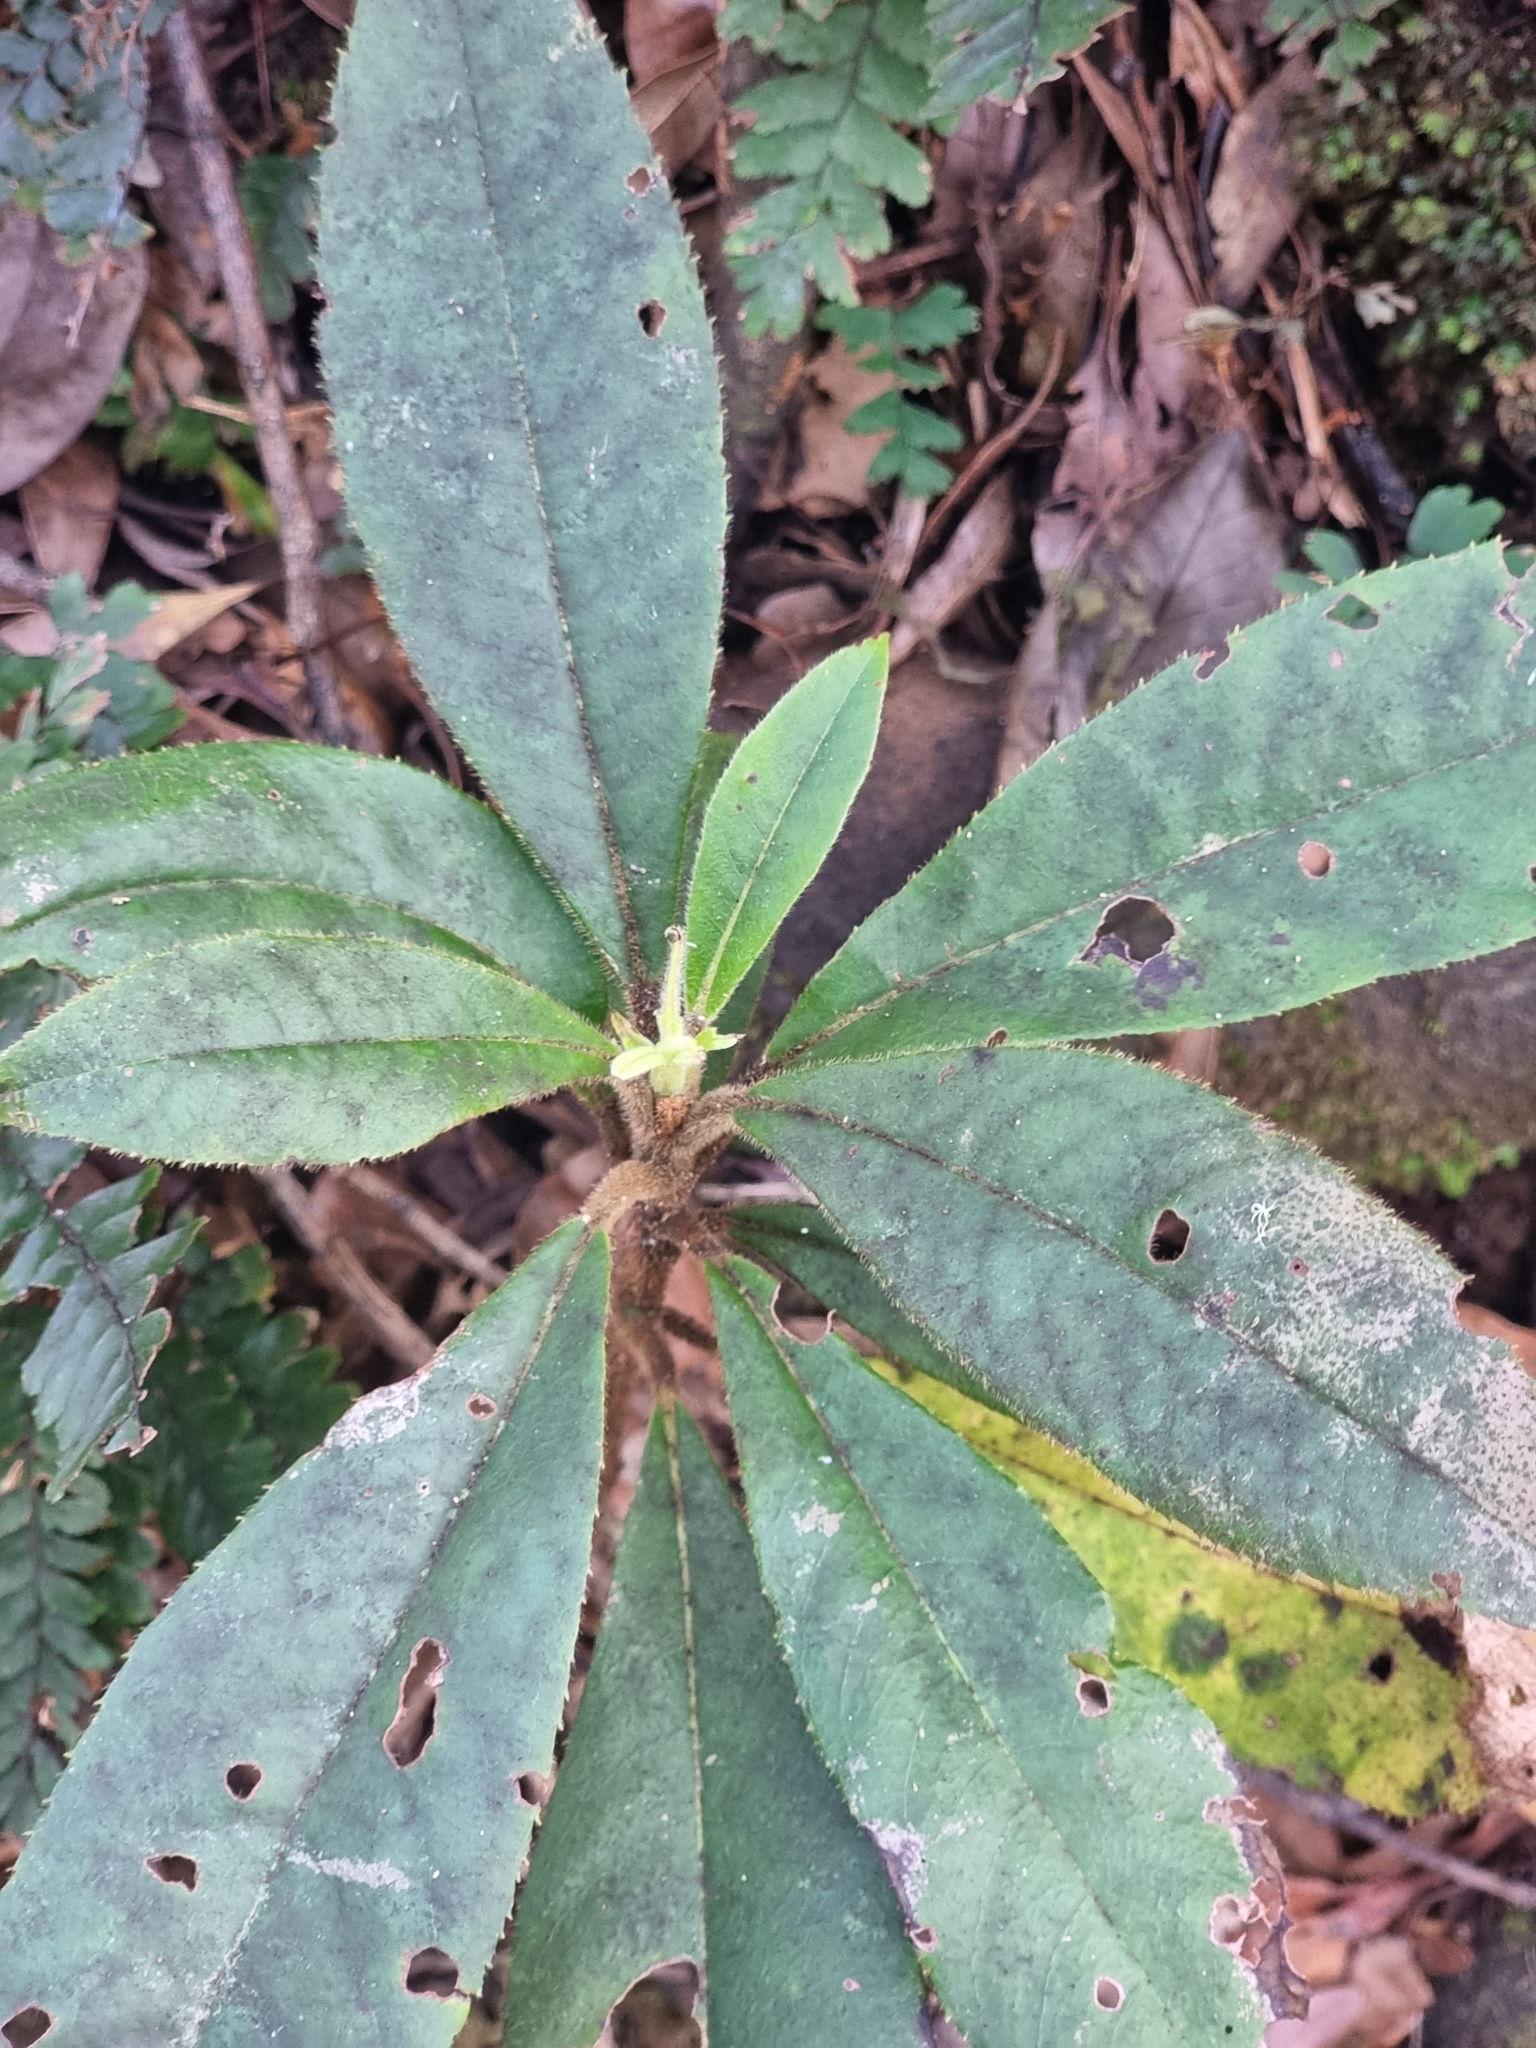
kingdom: Plantae
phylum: Tracheophyta
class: Magnoliopsida
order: Ericales
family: Clethraceae
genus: Clethra
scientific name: Clethra arborea
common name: Lily-of-the-valley-tree
